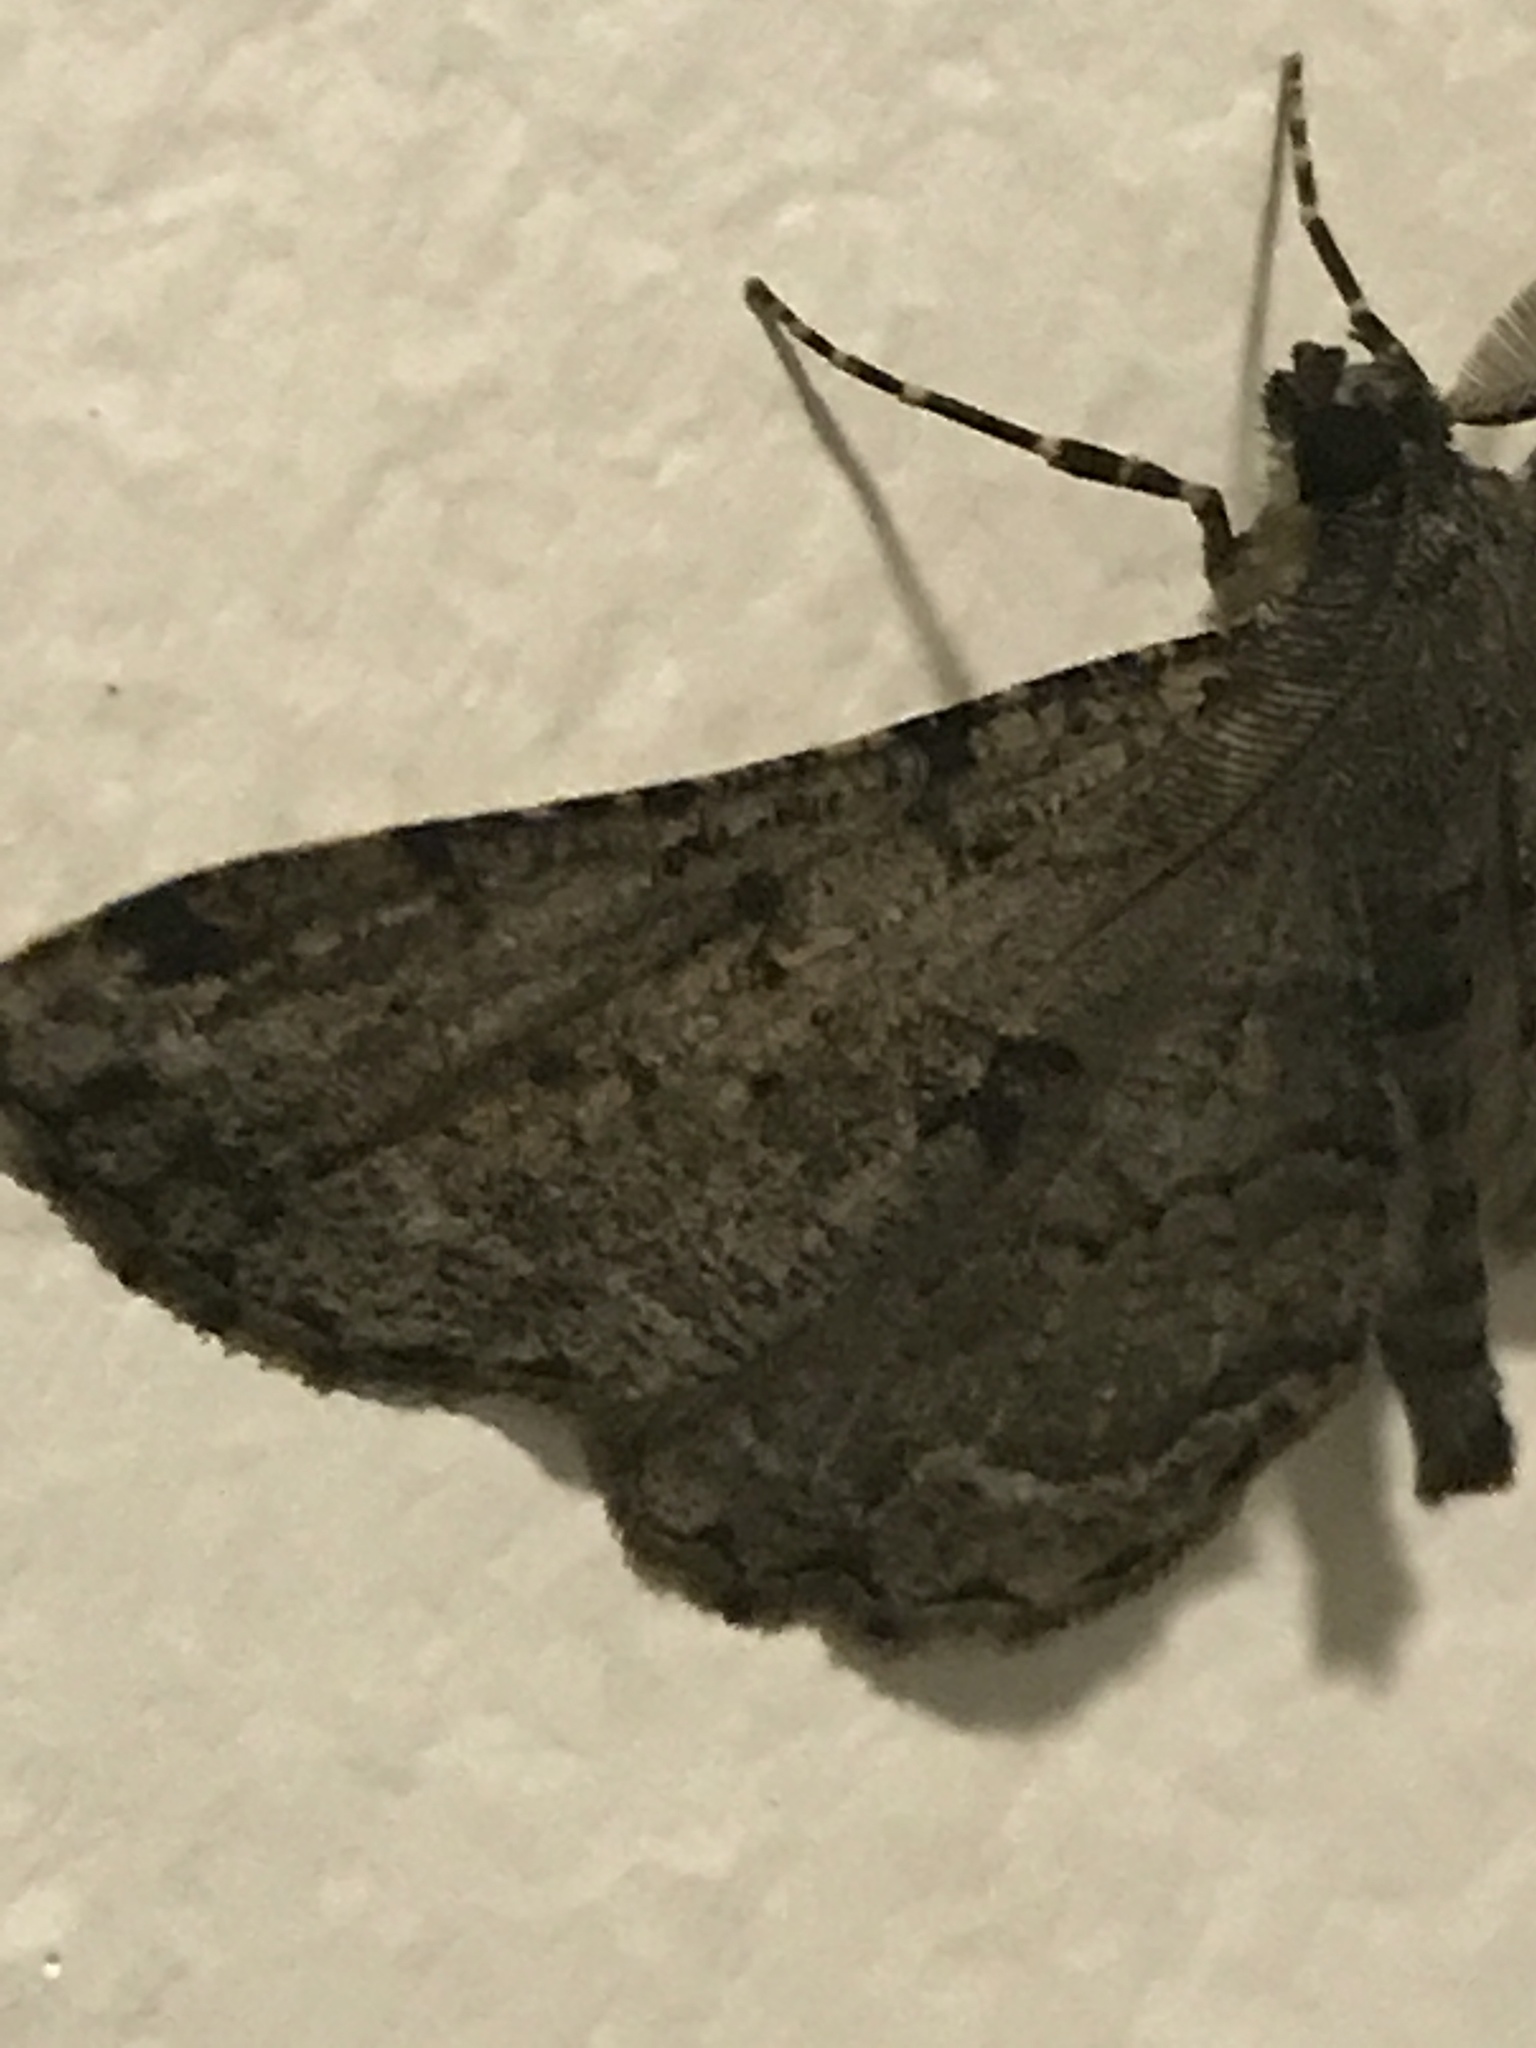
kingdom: Animalia
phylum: Arthropoda
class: Insecta
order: Lepidoptera
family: Geometridae
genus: Peribatodes
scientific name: Peribatodes rhomboidaria
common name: Willow beauty
